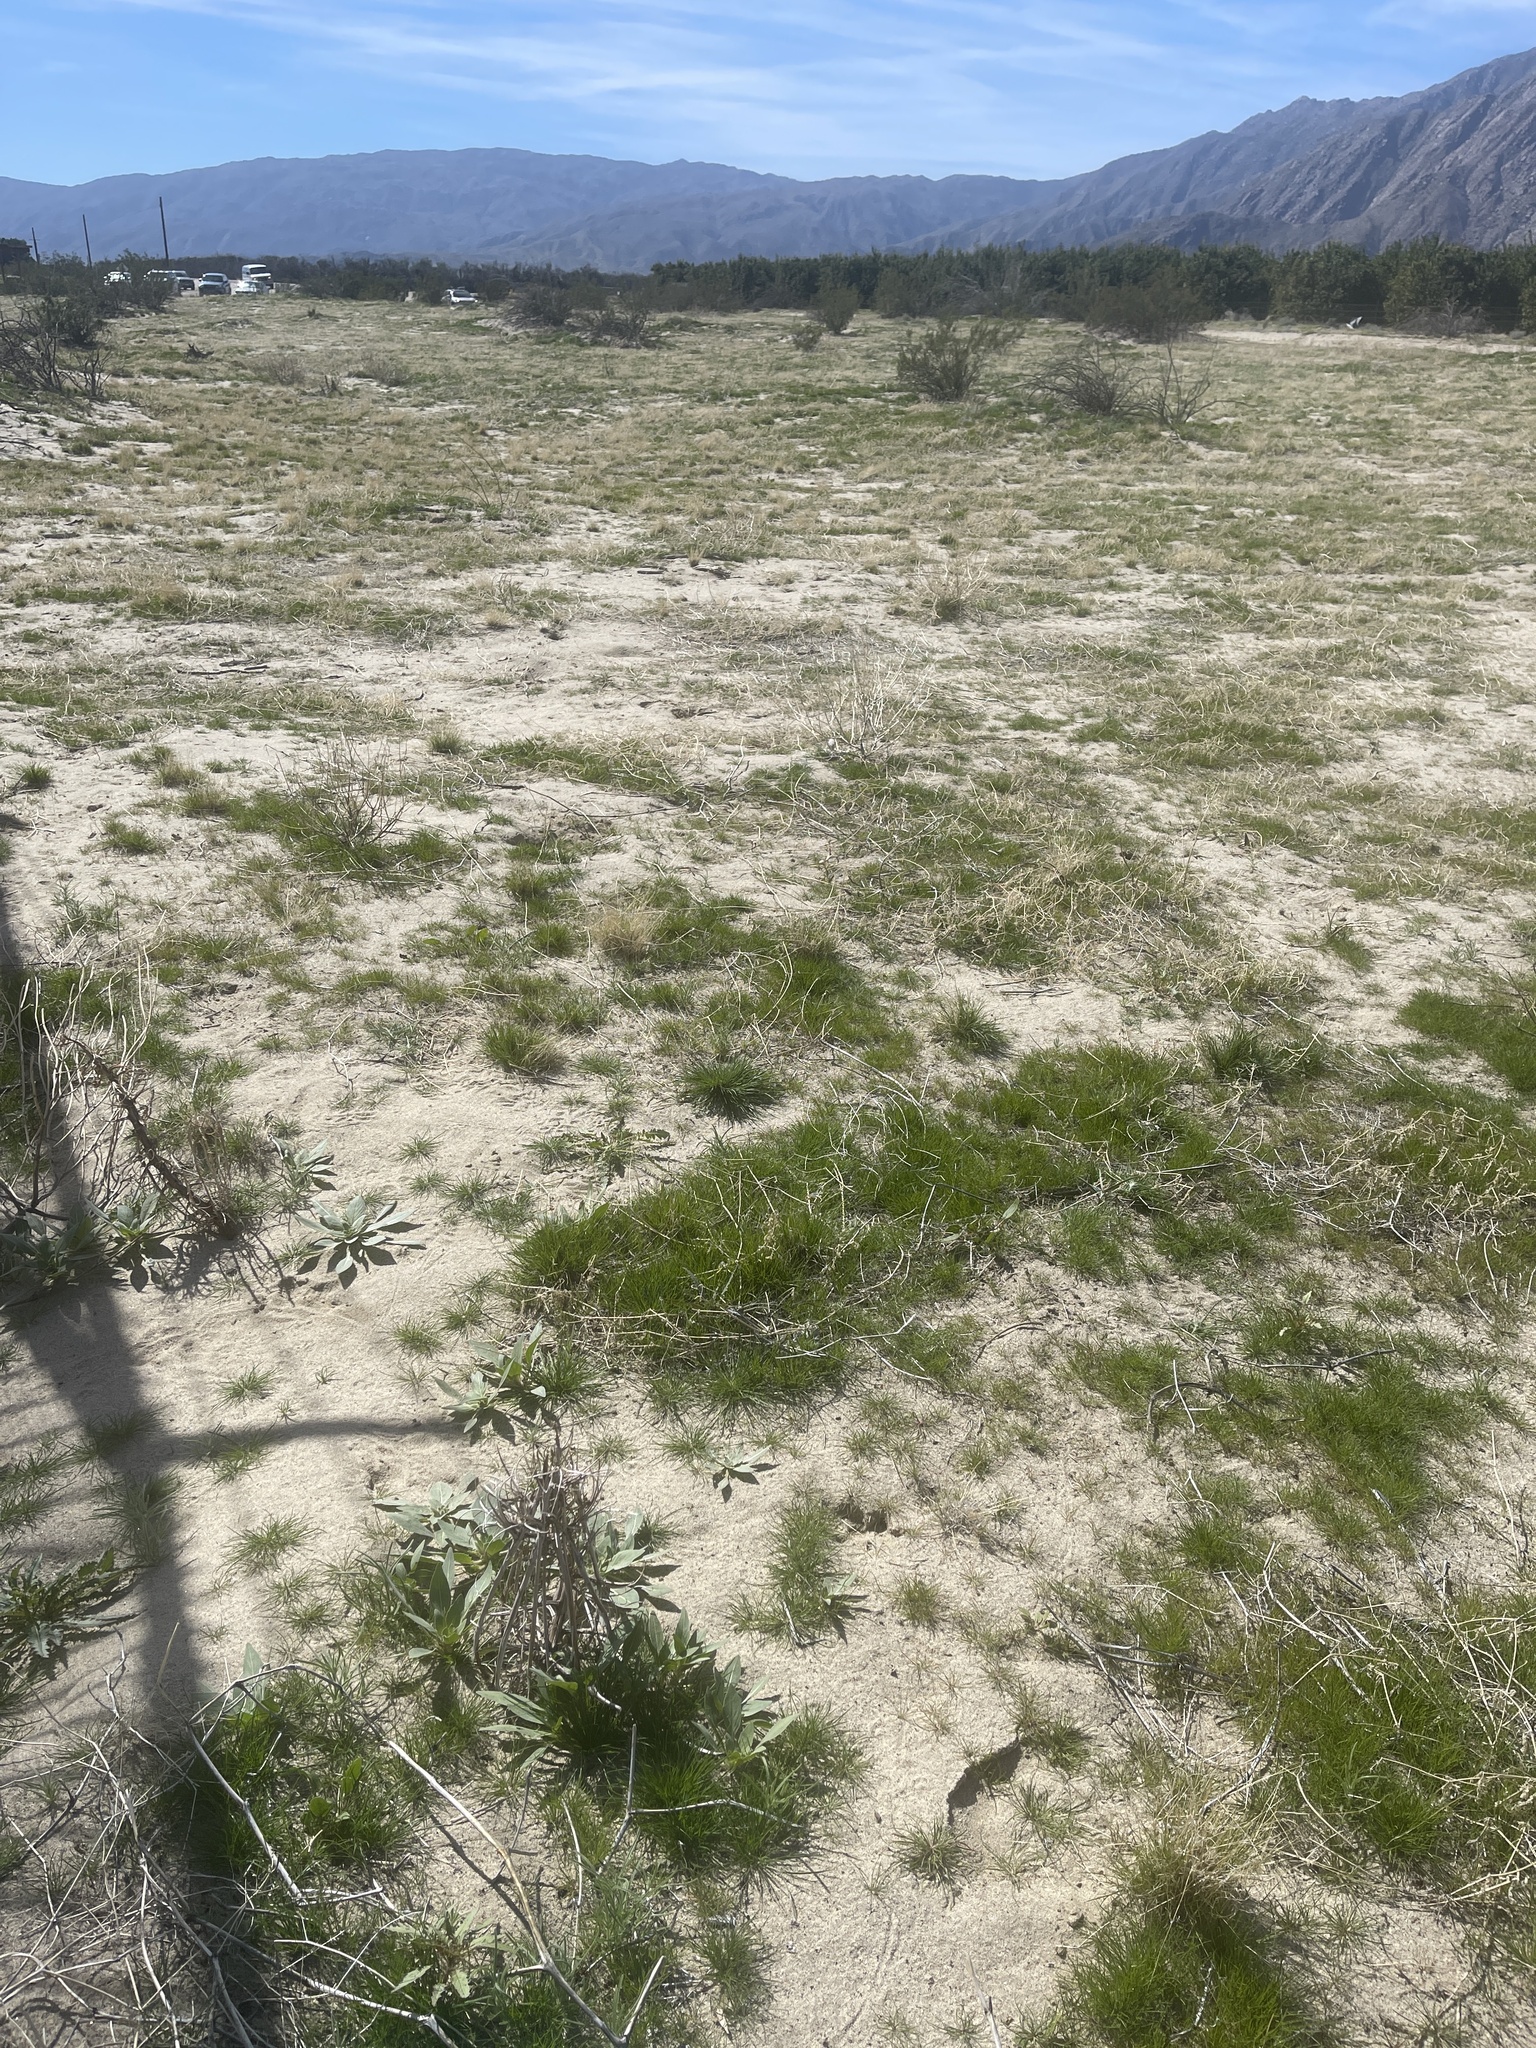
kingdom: Plantae
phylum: Tracheophyta
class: Magnoliopsida
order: Myrtales
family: Onagraceae
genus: Oenothera
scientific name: Oenothera deltoides
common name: Basket evening-primrose
